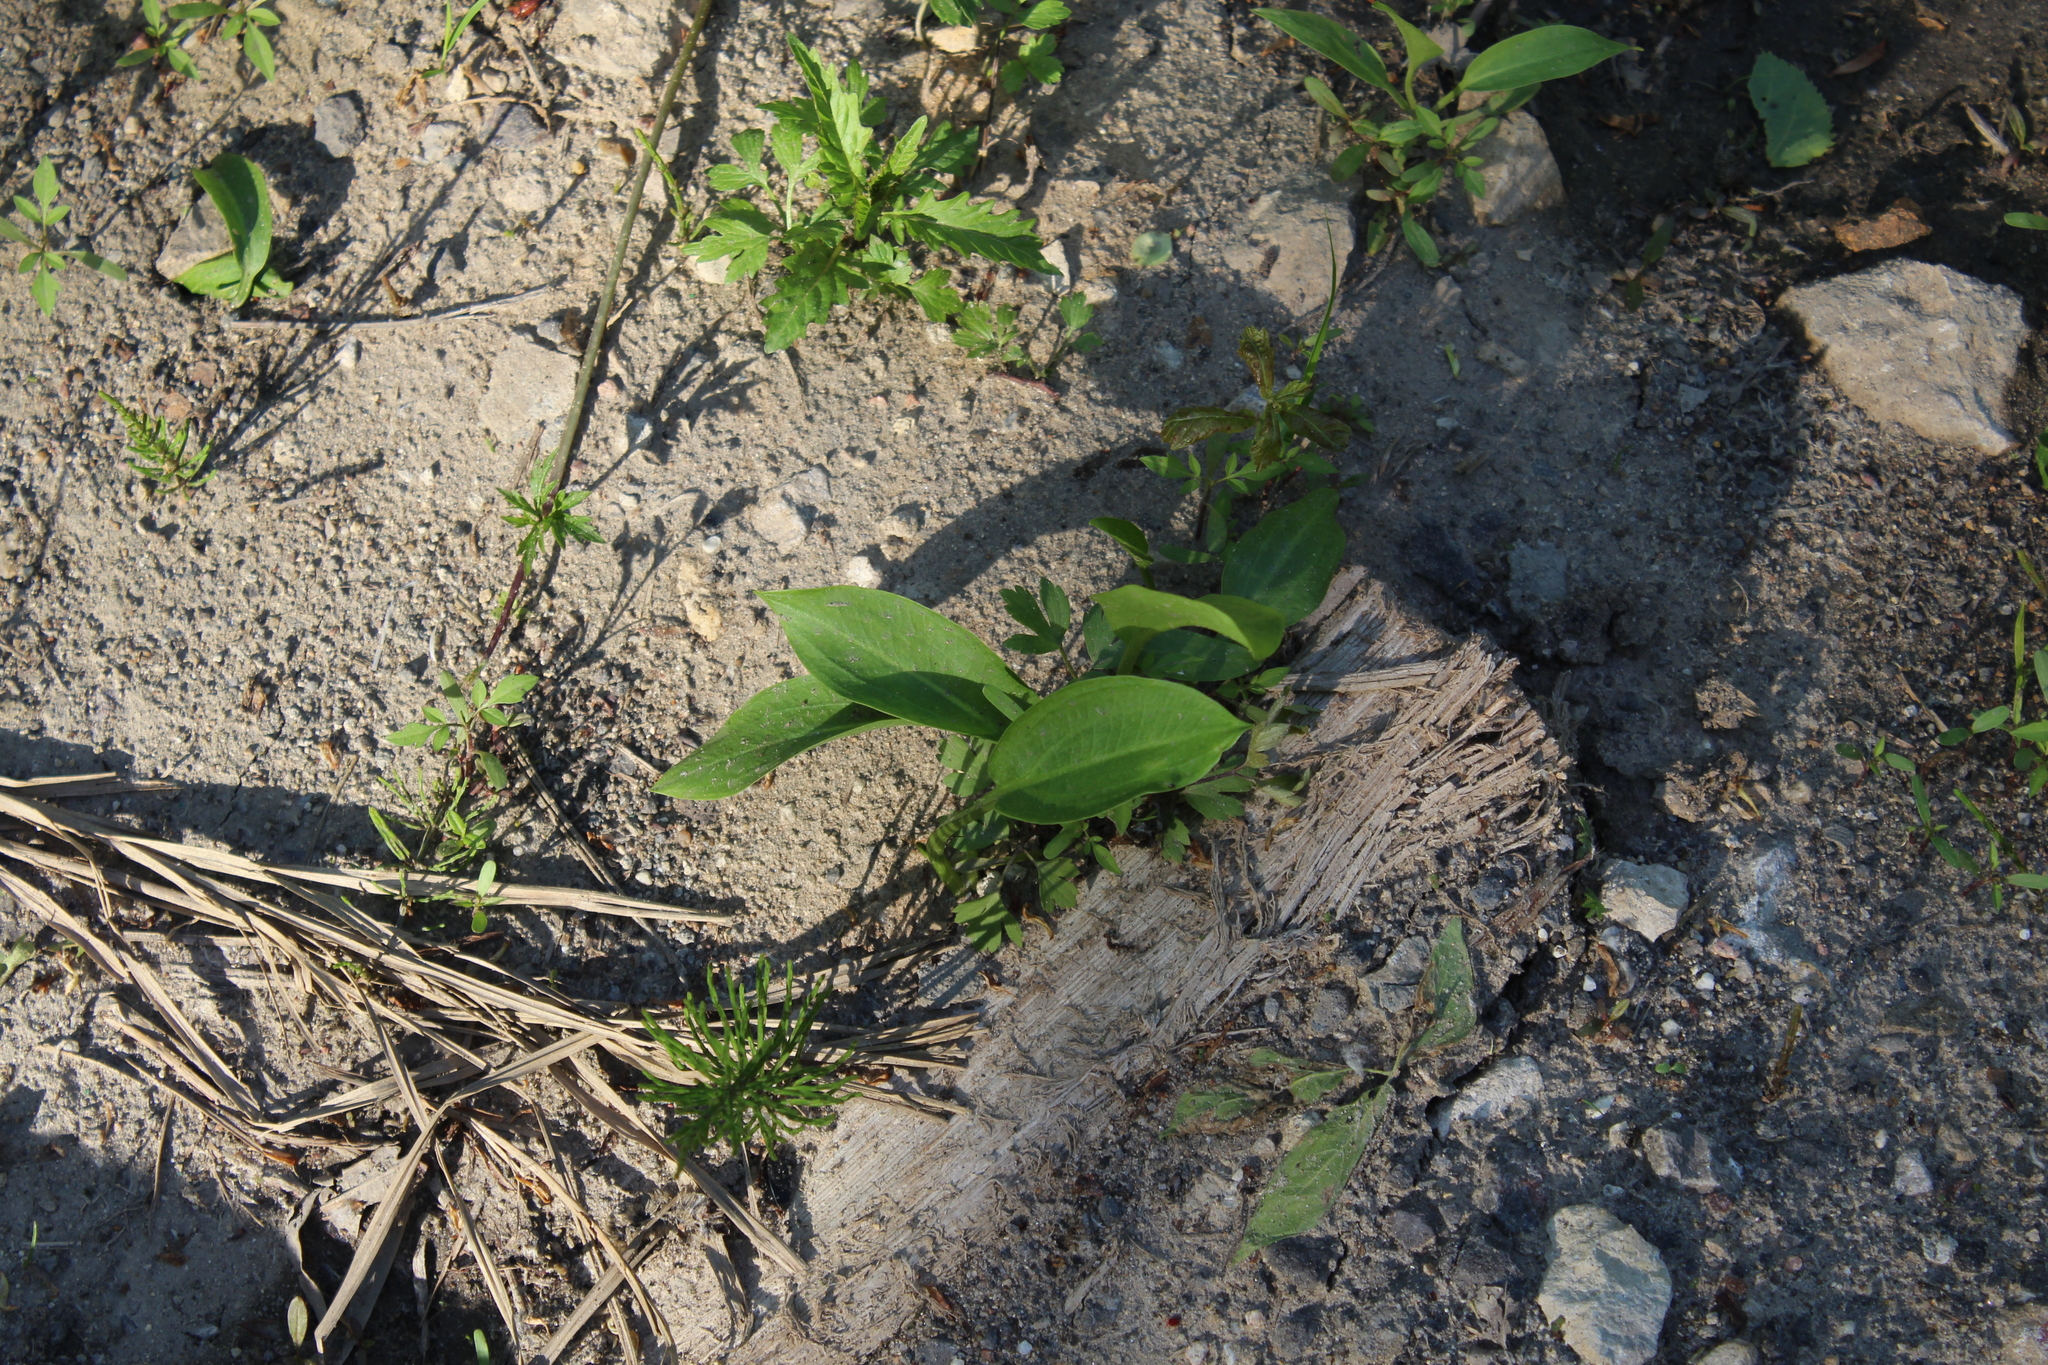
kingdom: Plantae
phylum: Tracheophyta
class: Liliopsida
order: Alismatales
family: Alismataceae
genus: Alisma
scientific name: Alisma plantago-aquatica
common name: Water-plantain
